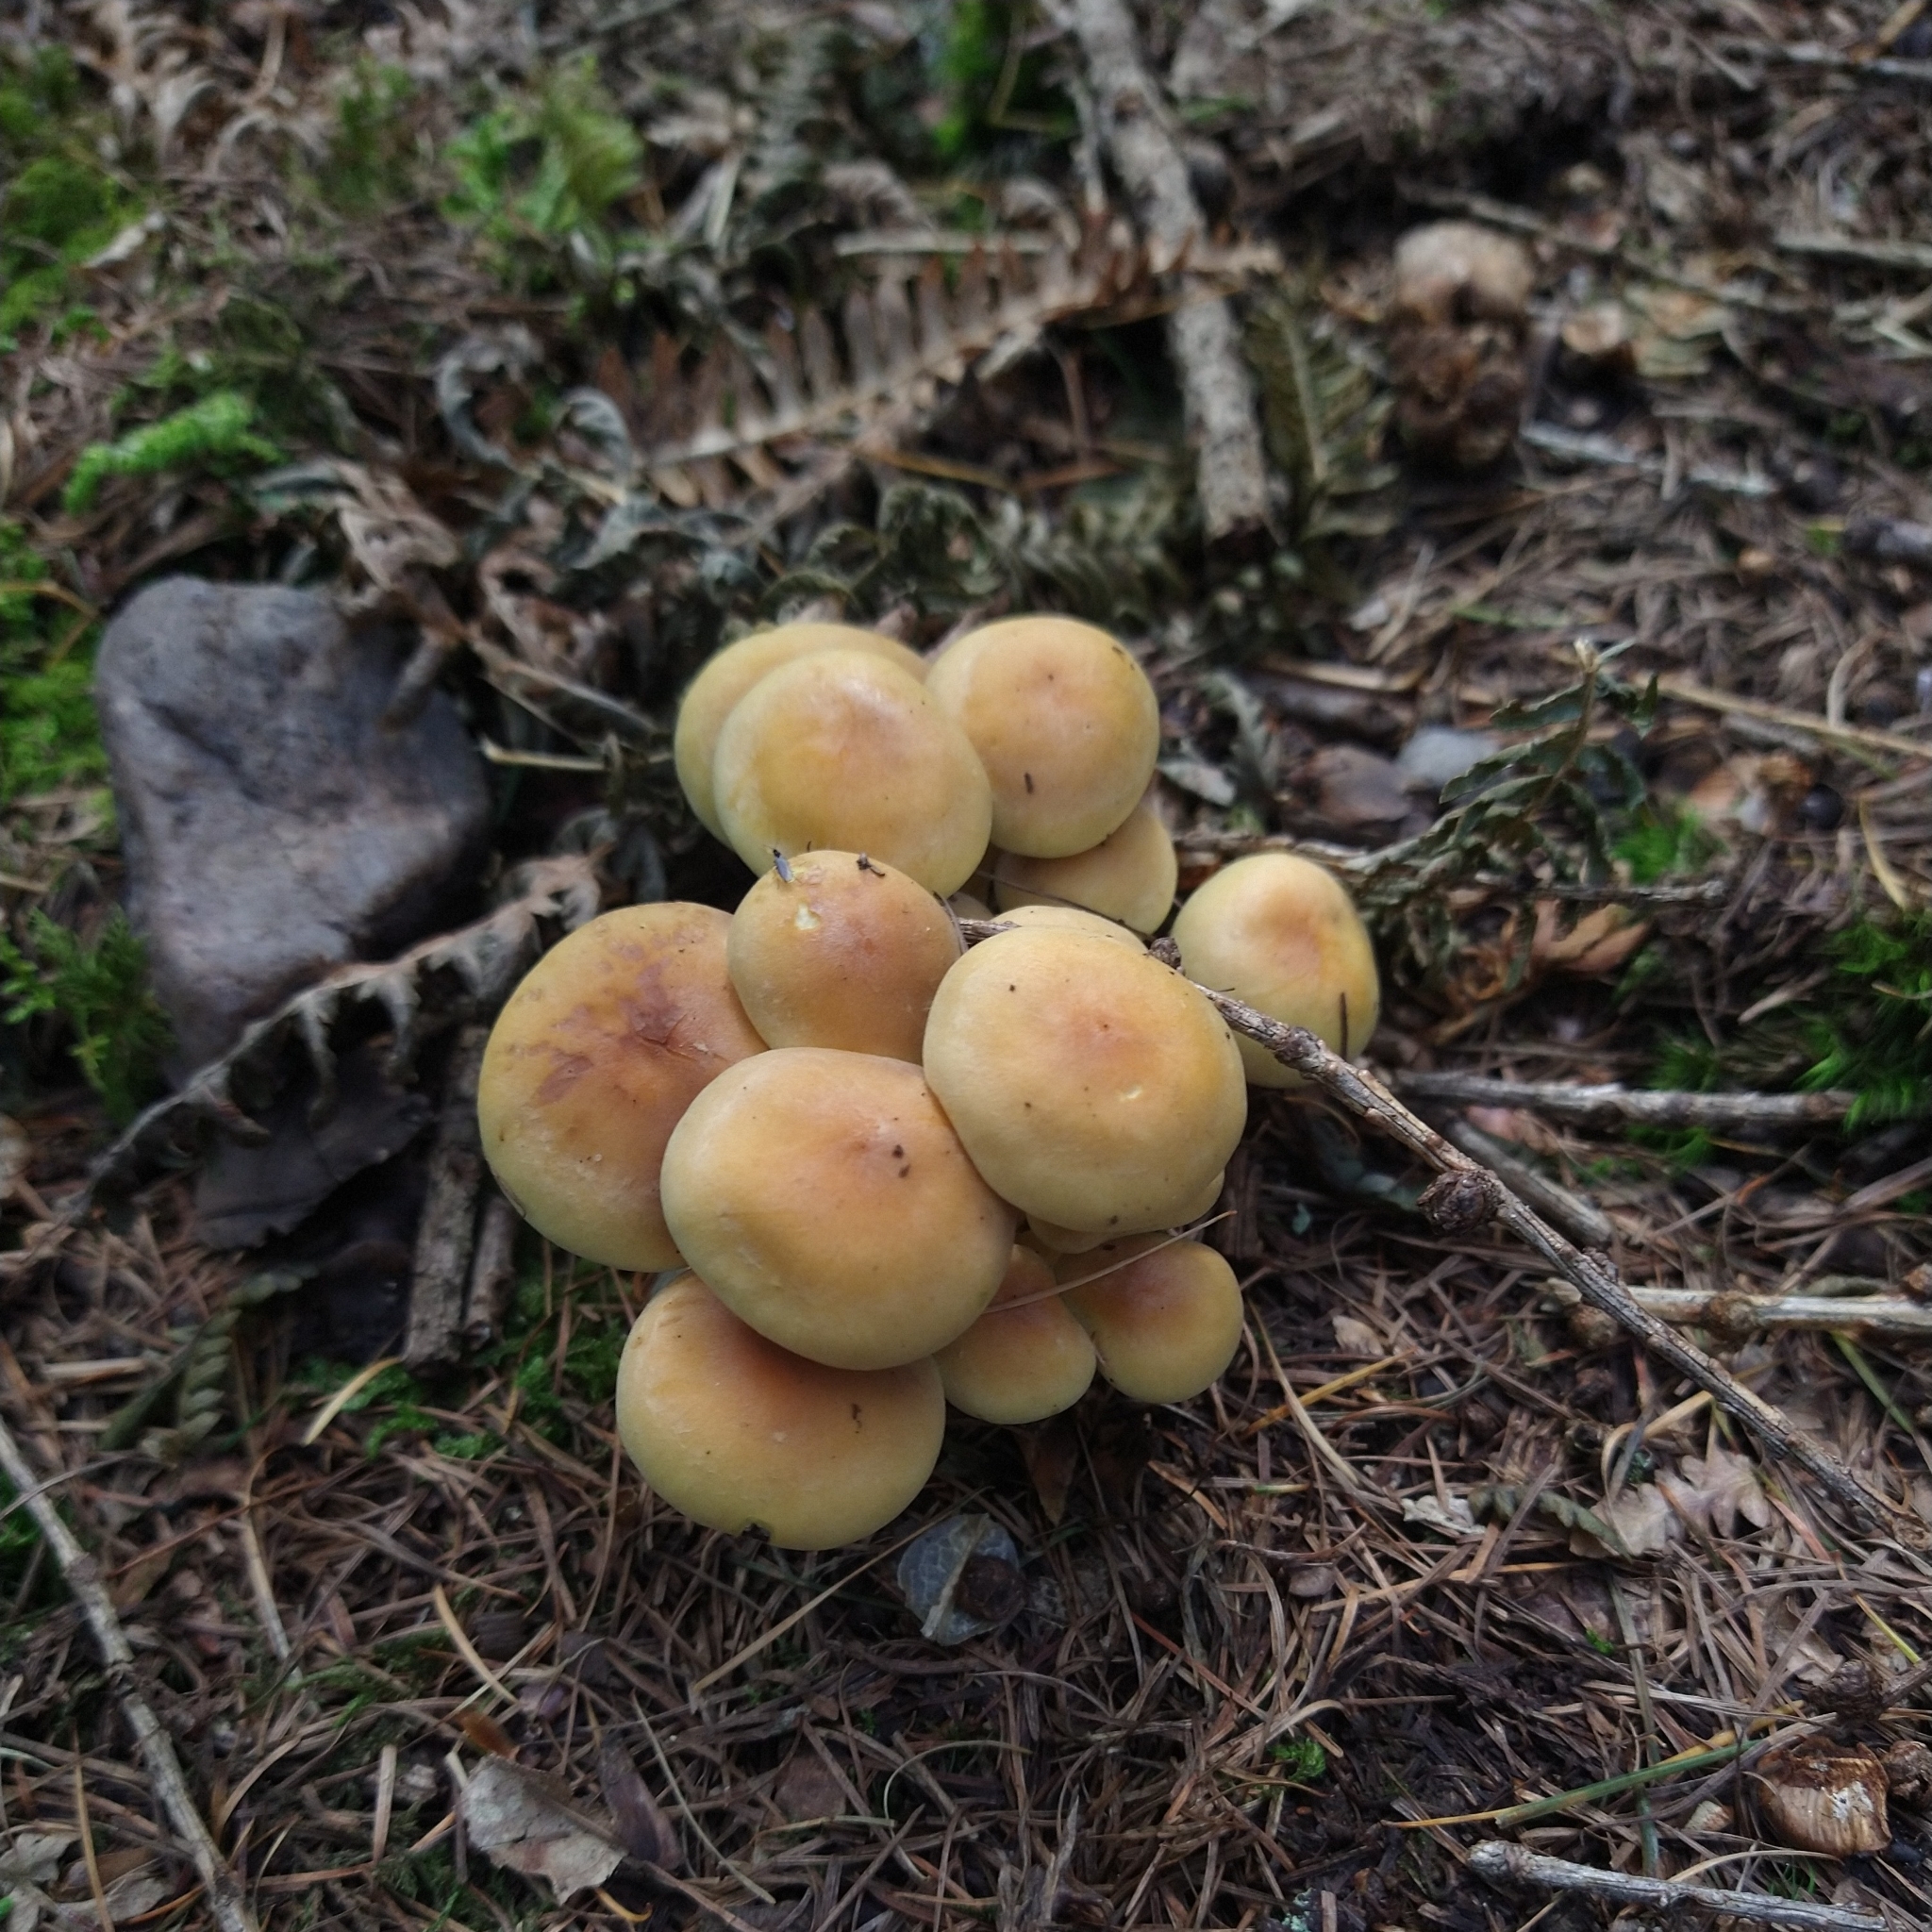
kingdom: Fungi
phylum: Basidiomycota
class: Agaricomycetes
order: Agaricales
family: Strophariaceae
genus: Hypholoma
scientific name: Hypholoma fasciculare
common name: Sulphur tuft
